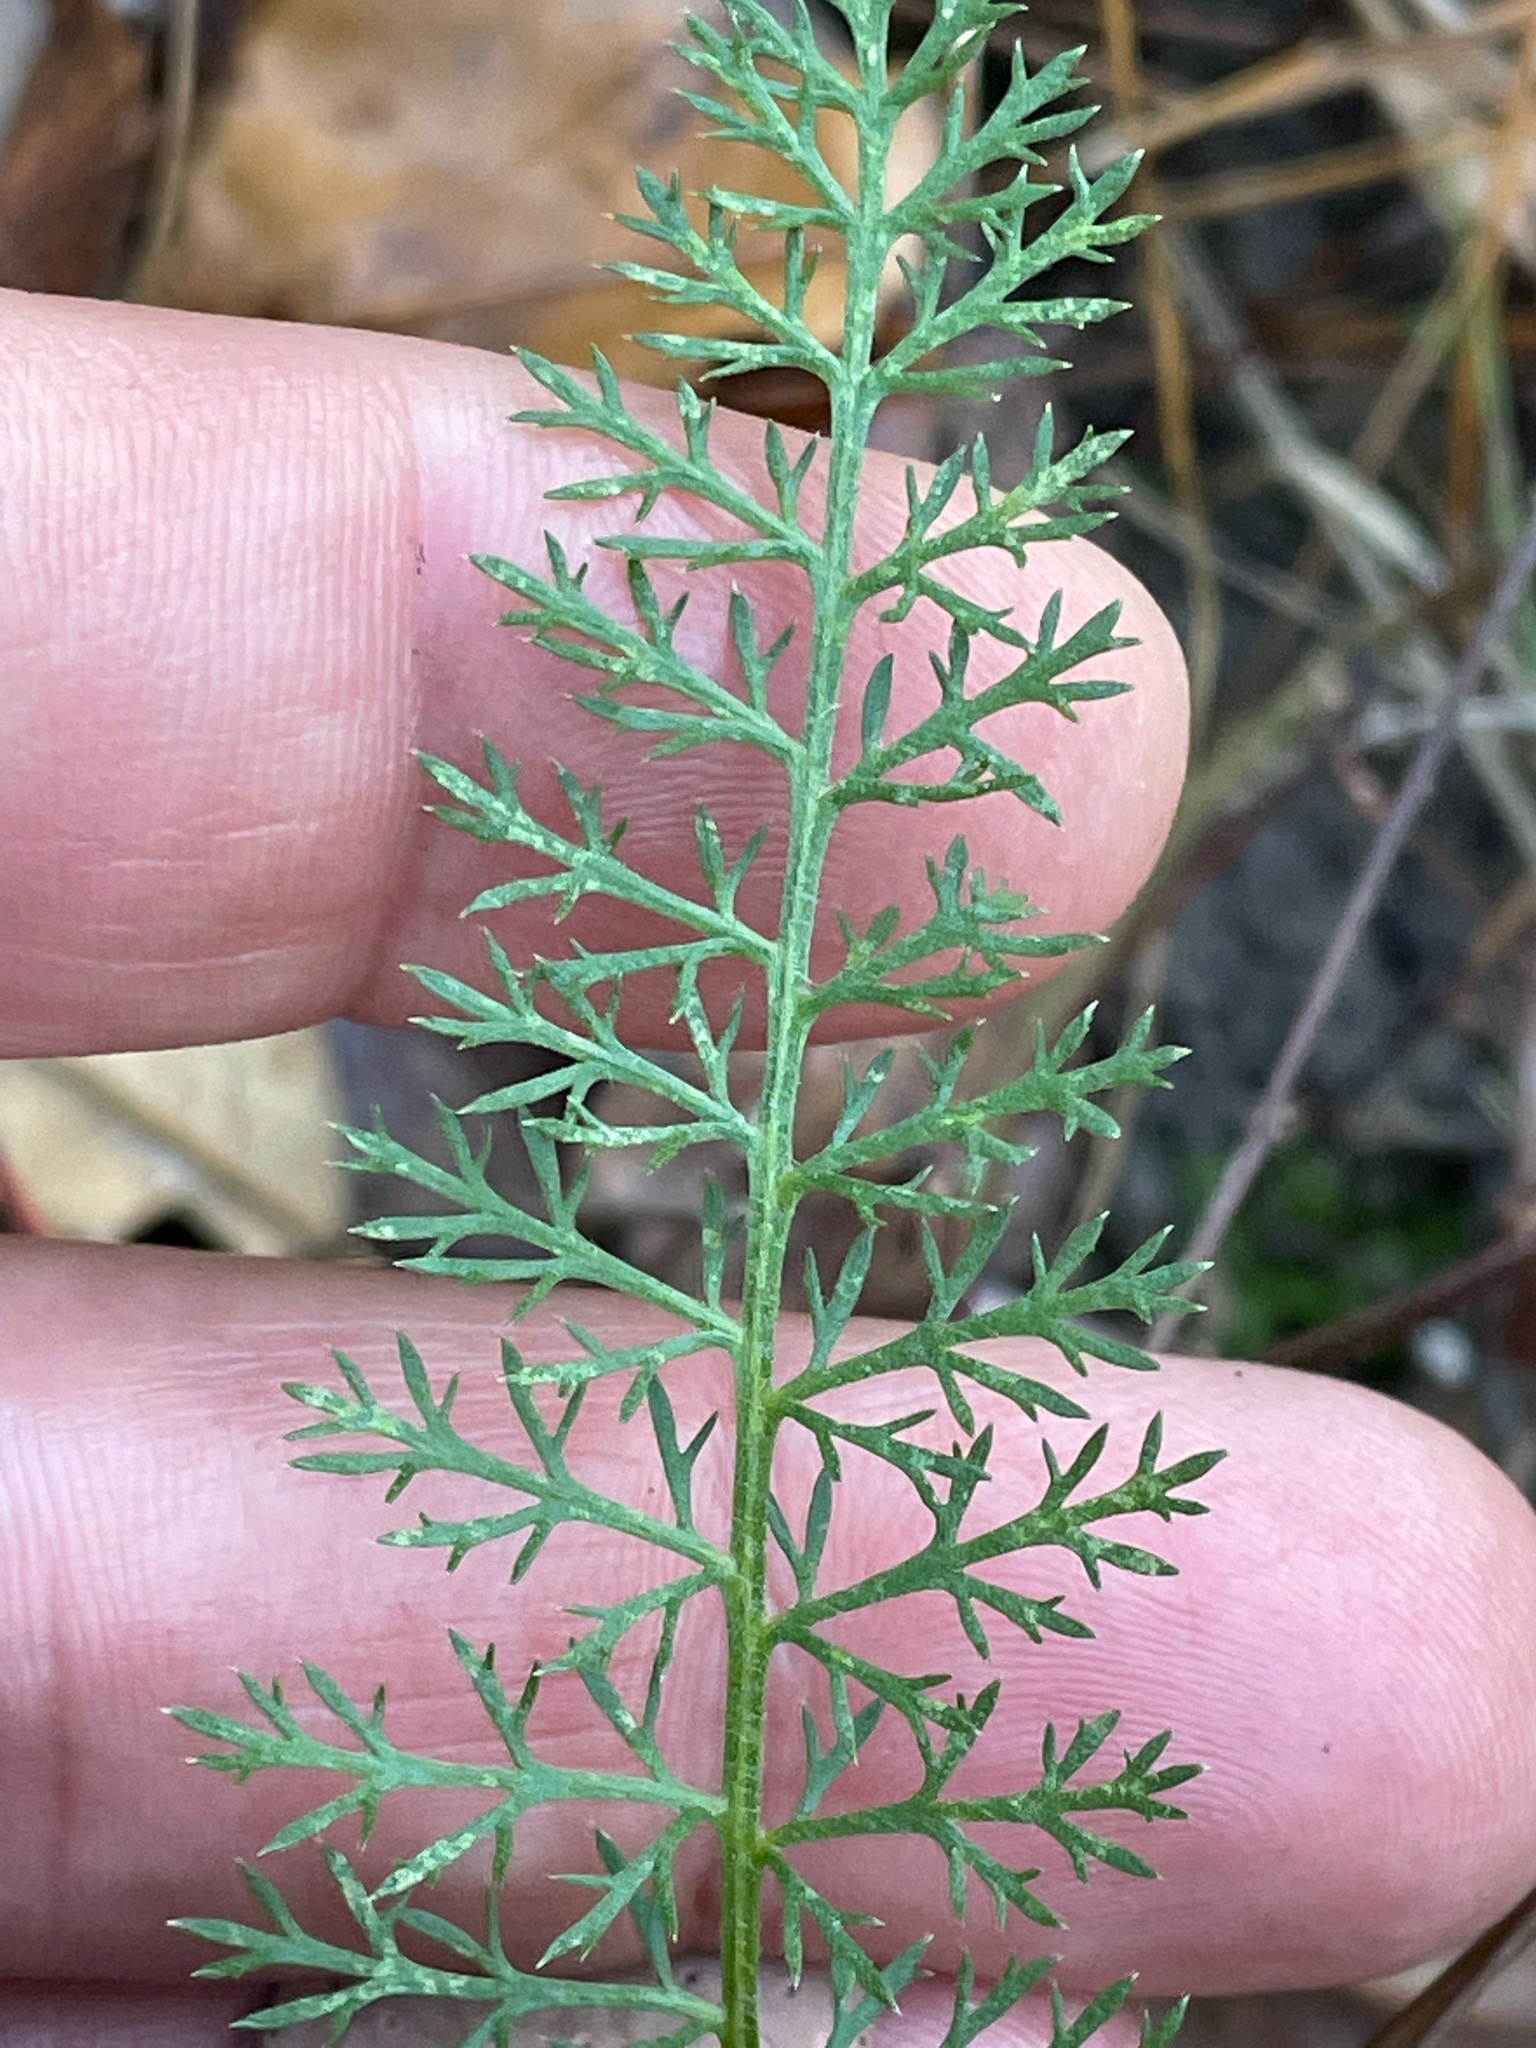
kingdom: Plantae
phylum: Tracheophyta
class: Magnoliopsida
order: Asterales
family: Asteraceae
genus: Achillea
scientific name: Achillea millefolium
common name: Yarrow
